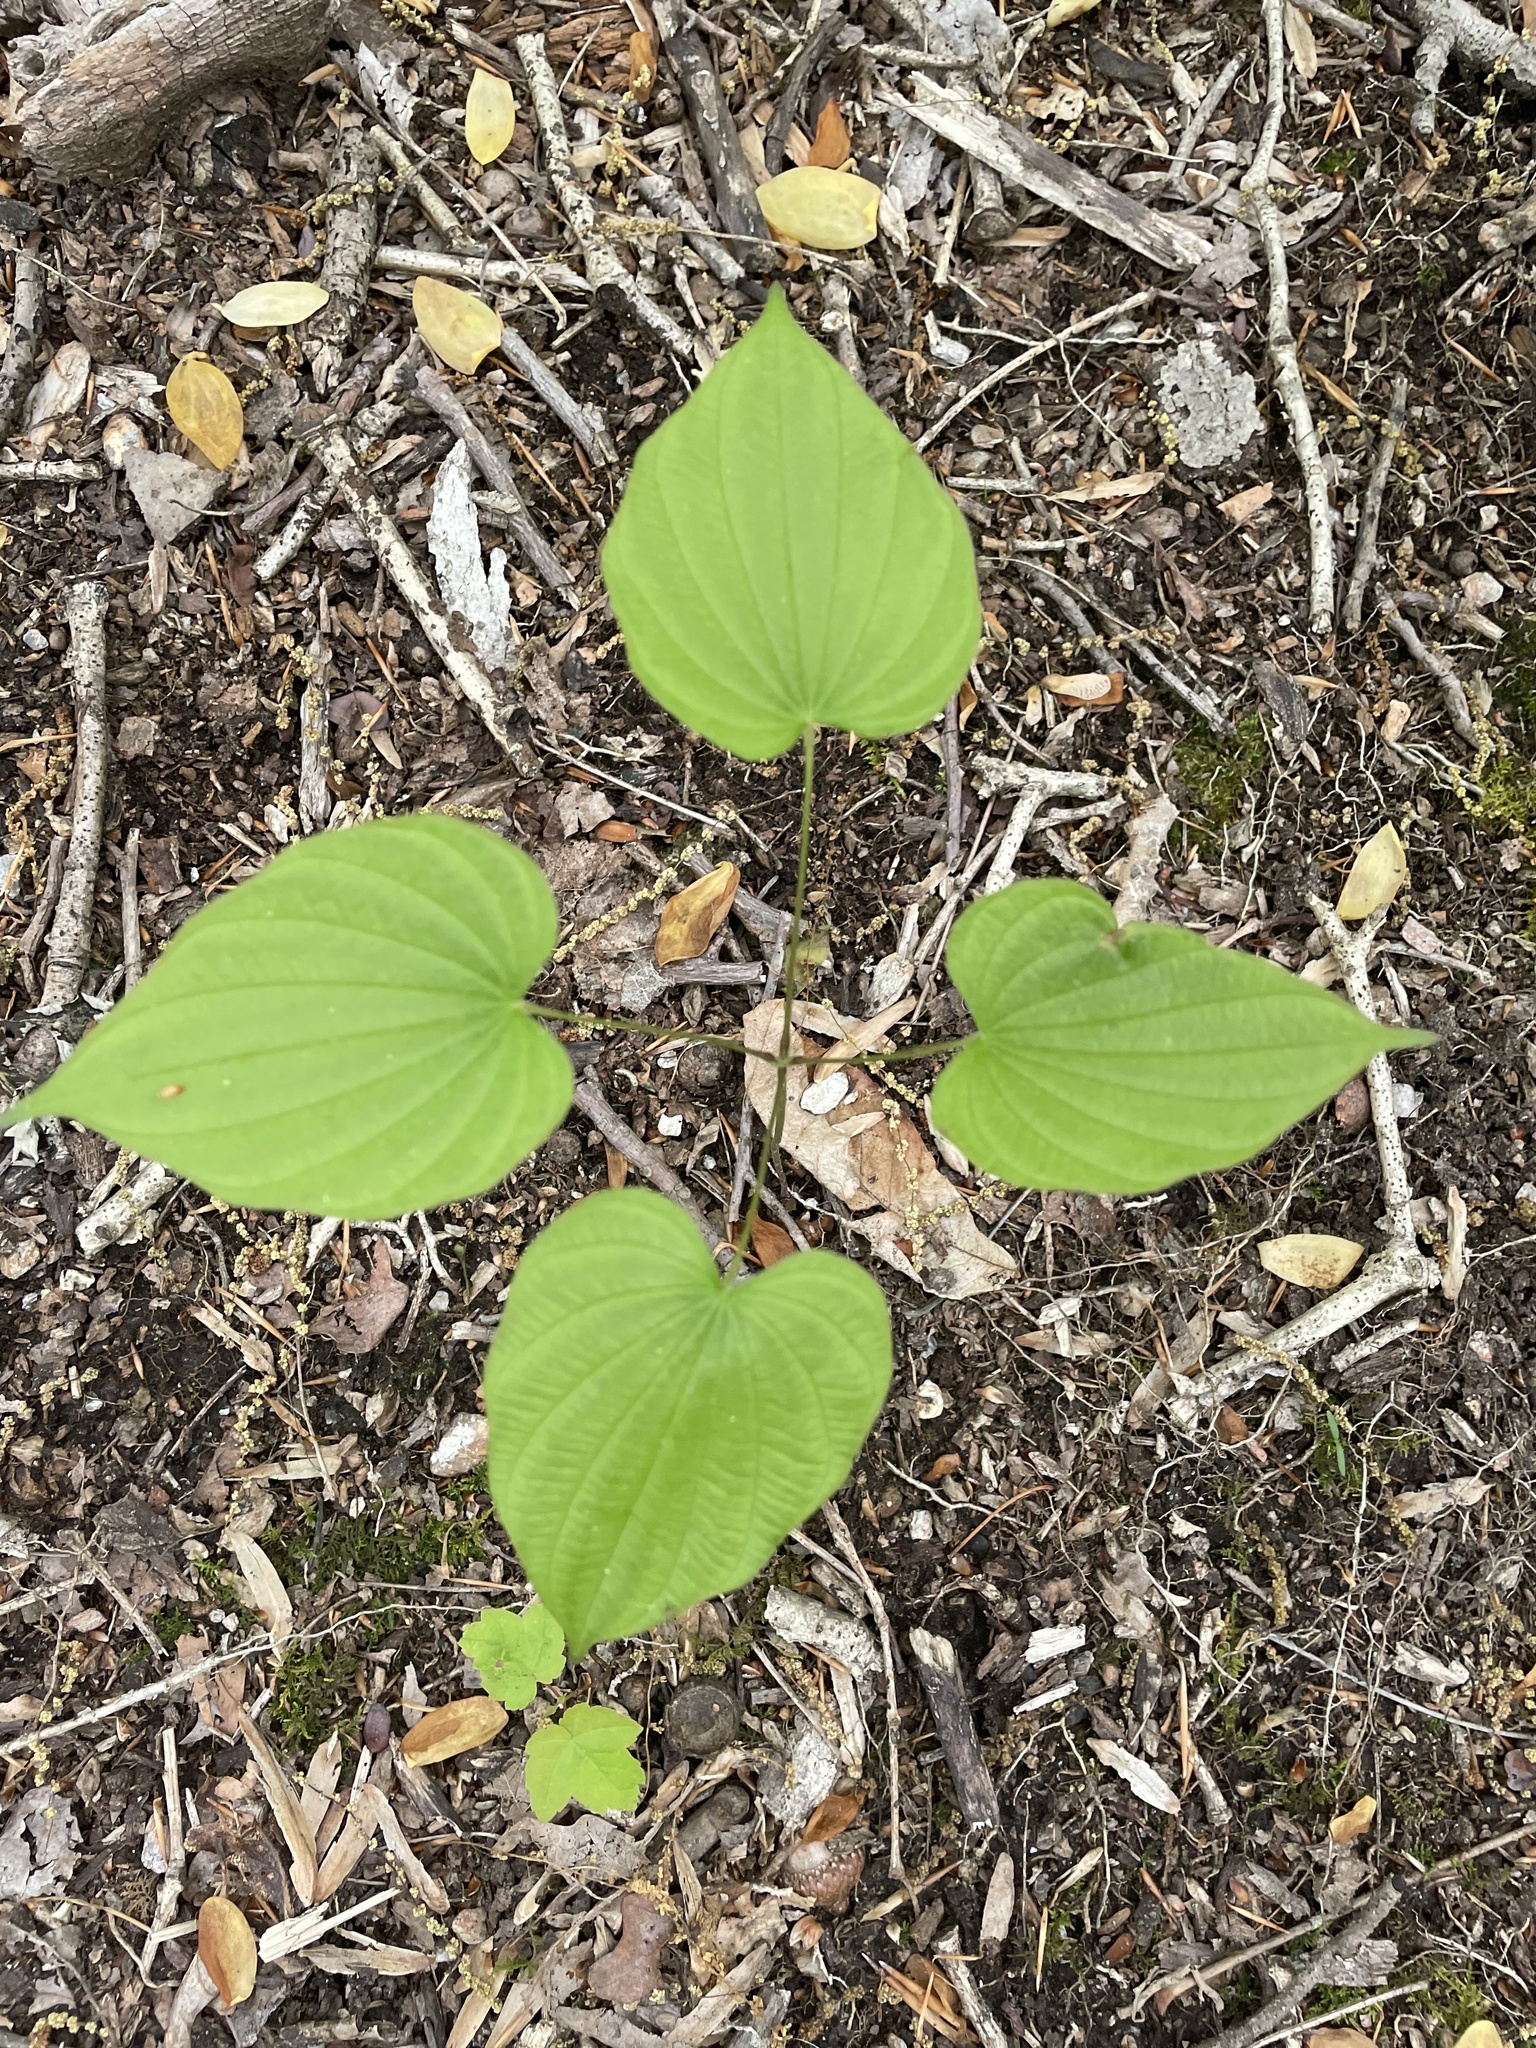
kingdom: Plantae
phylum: Tracheophyta
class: Liliopsida
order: Dioscoreales
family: Dioscoreaceae
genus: Dioscorea
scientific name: Dioscorea villosa
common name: Wild yam
